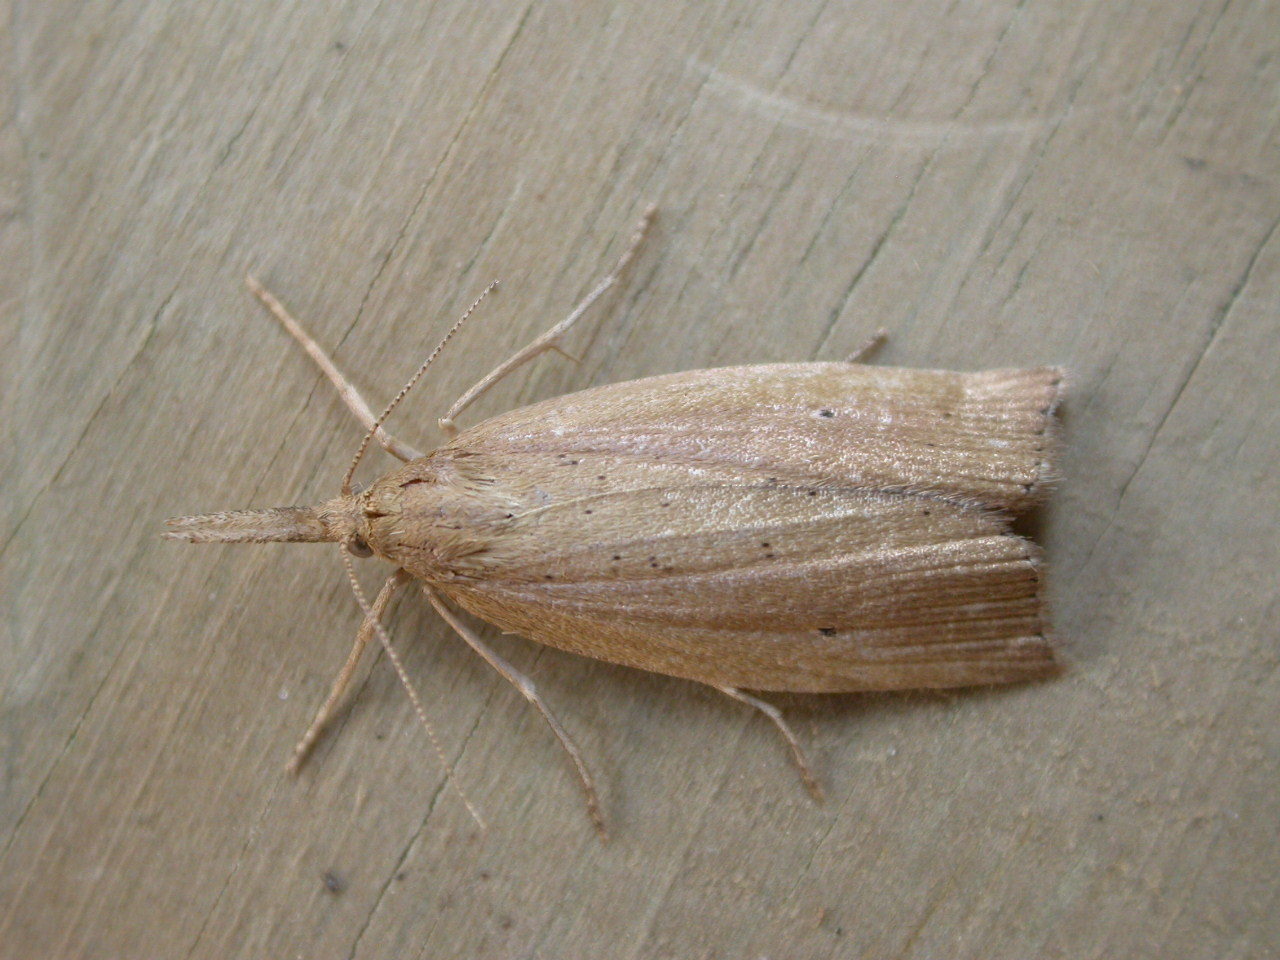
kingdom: Animalia
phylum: Arthropoda
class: Insecta
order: Lepidoptera
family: Crambidae
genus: Chilo
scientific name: Chilo phragmitella
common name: Reed veneer
